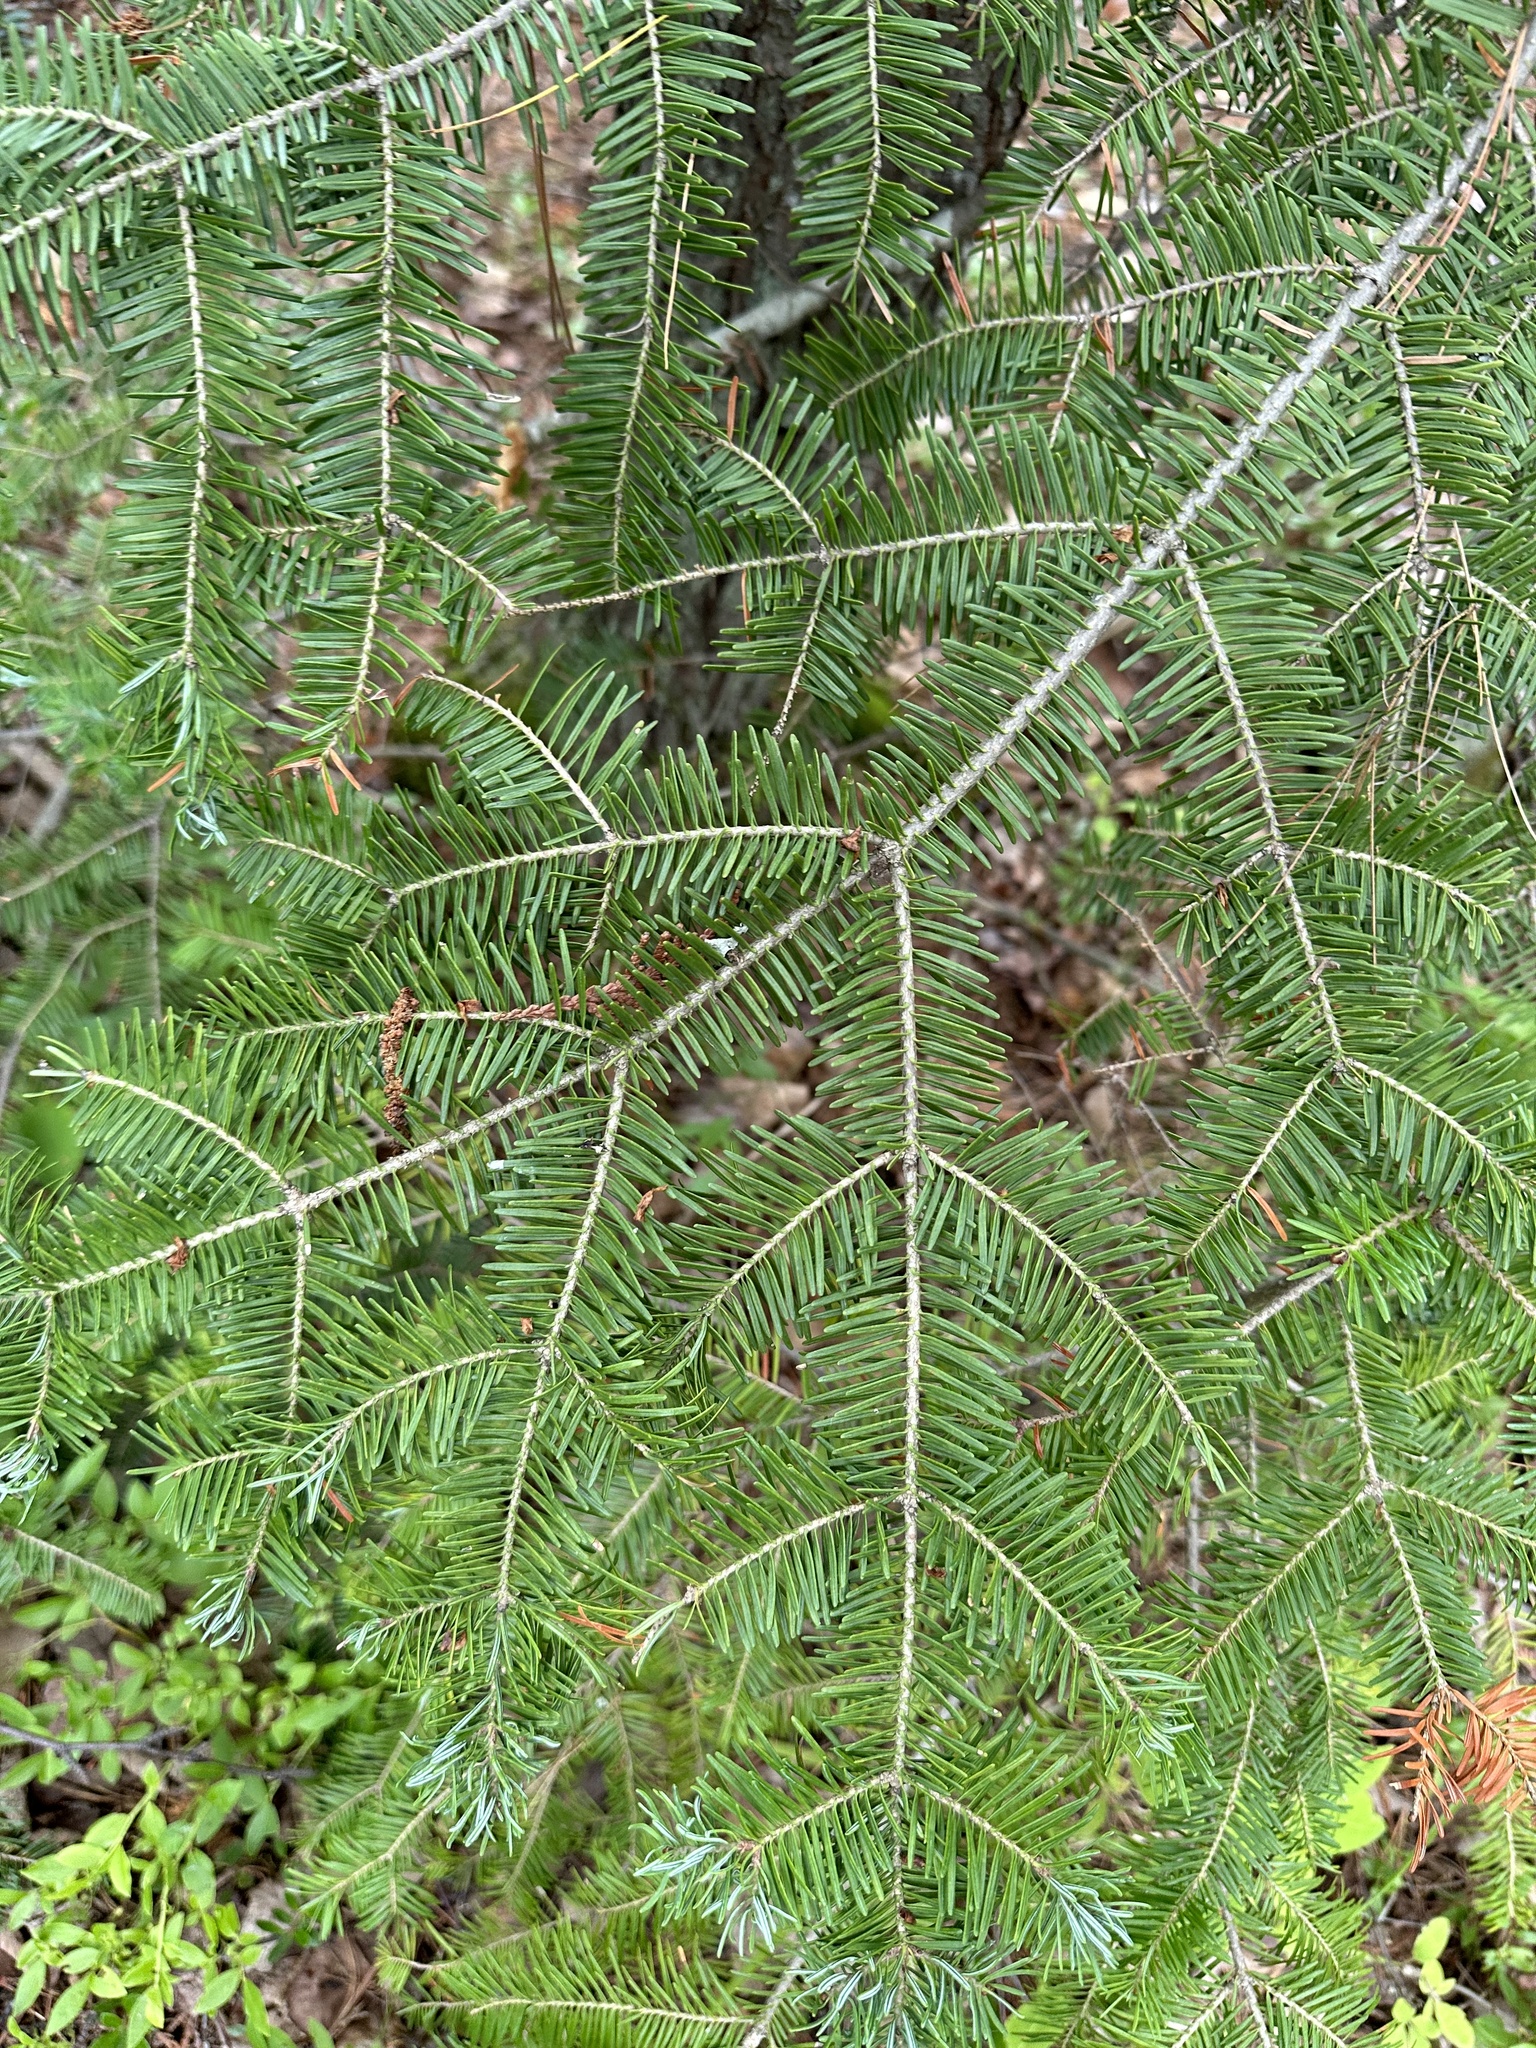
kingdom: Plantae
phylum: Tracheophyta
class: Pinopsida
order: Pinales
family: Pinaceae
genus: Abies
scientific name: Abies balsamea
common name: Balsam fir
